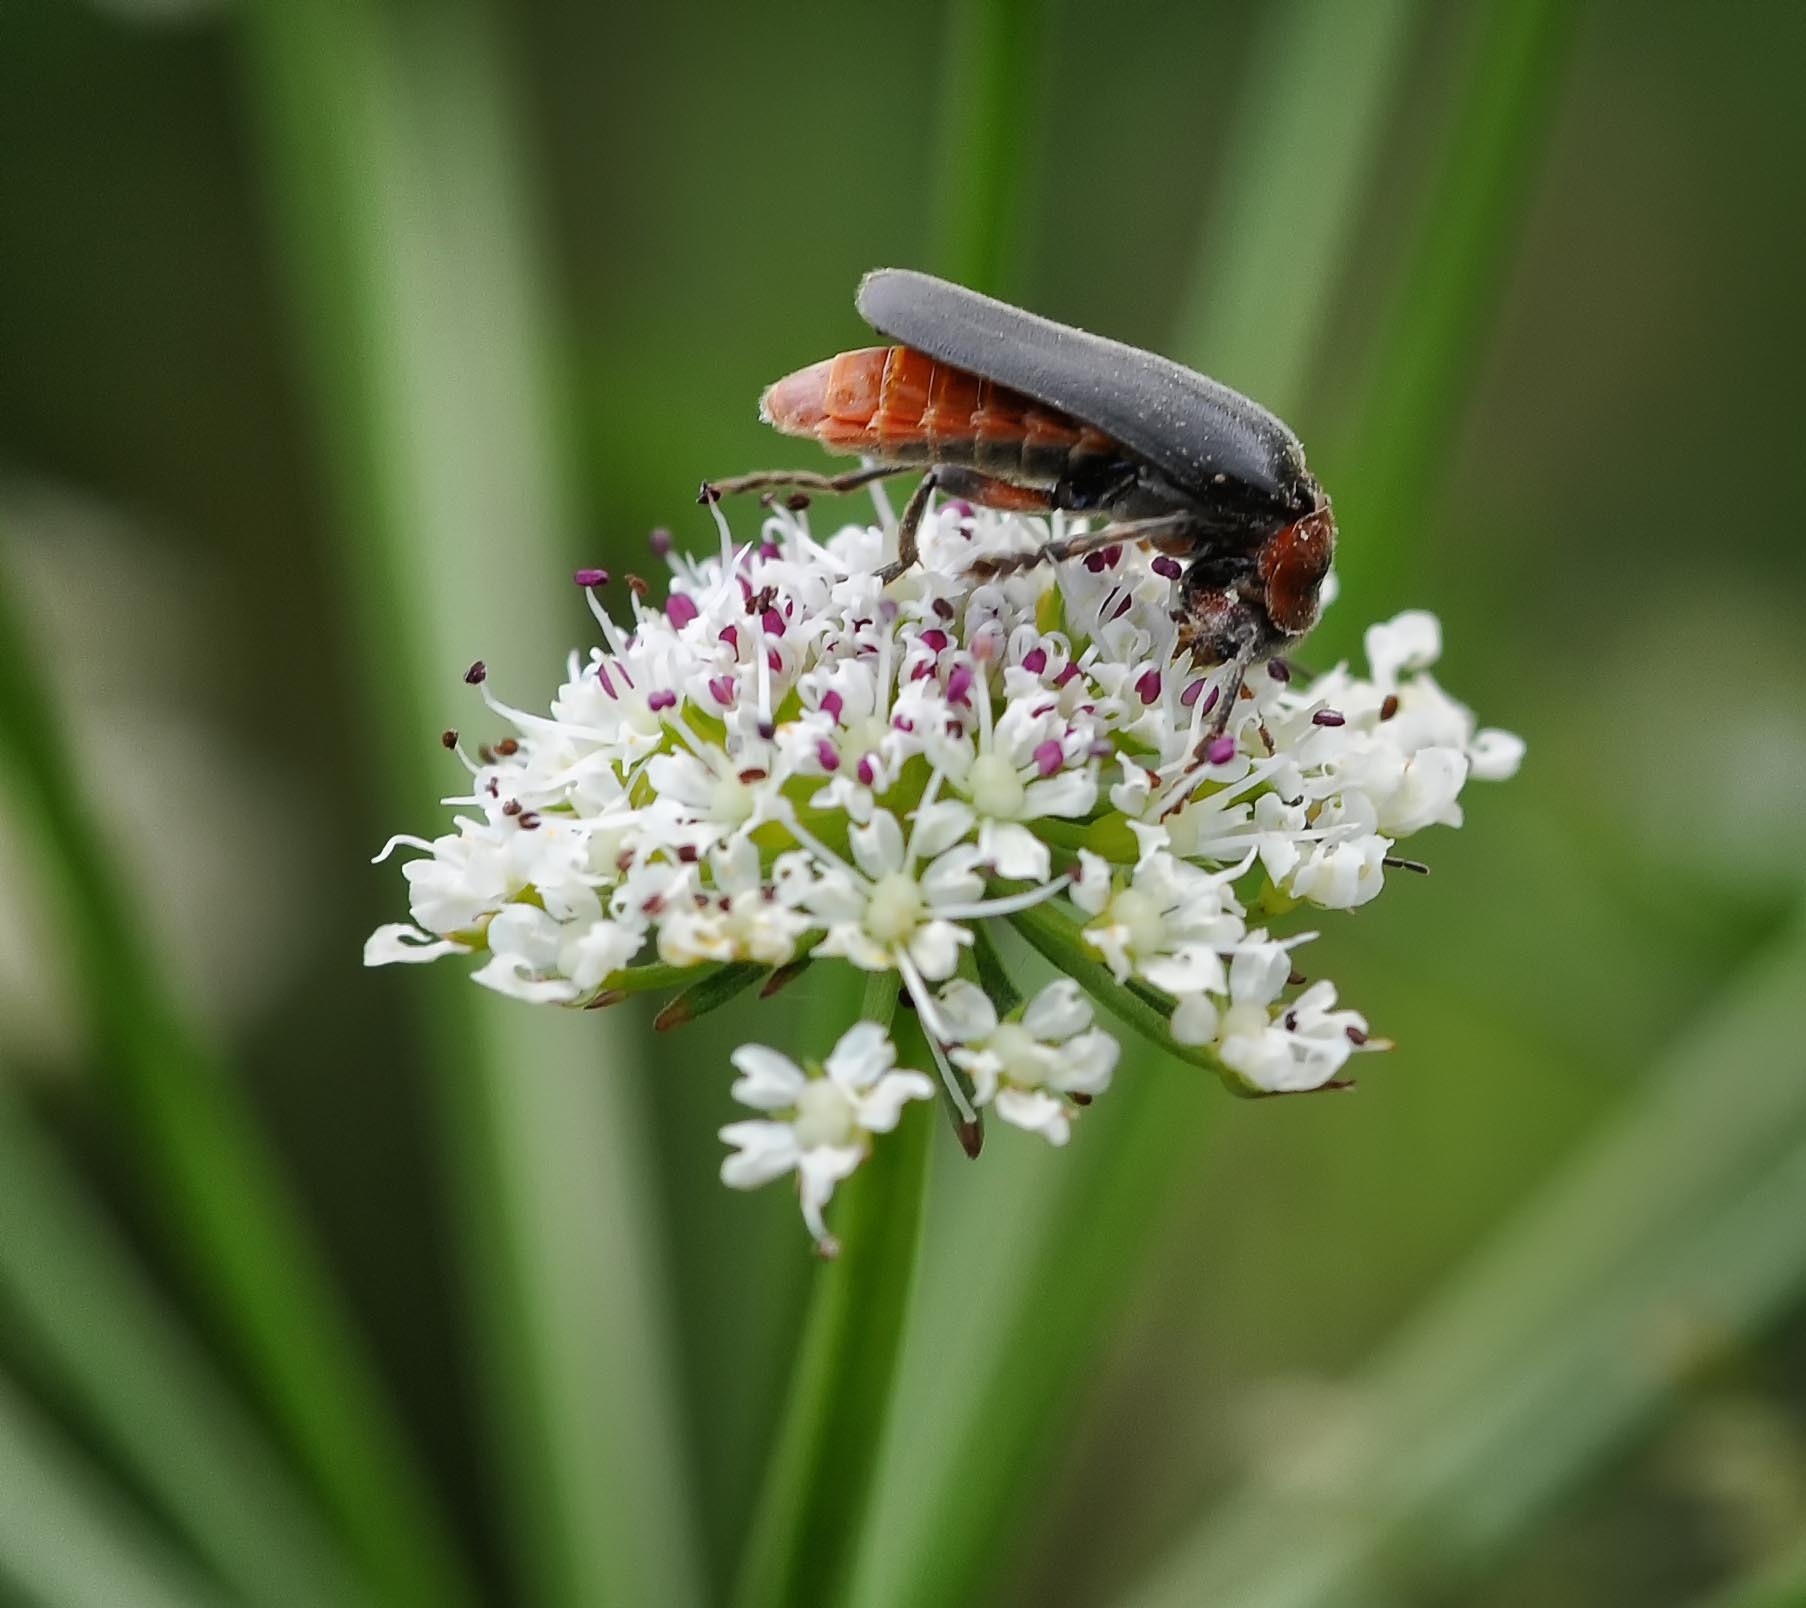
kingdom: Animalia
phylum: Arthropoda
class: Insecta
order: Coleoptera
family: Cantharidae
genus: Cantharis
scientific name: Cantharis rustica
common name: Soldier beetle
